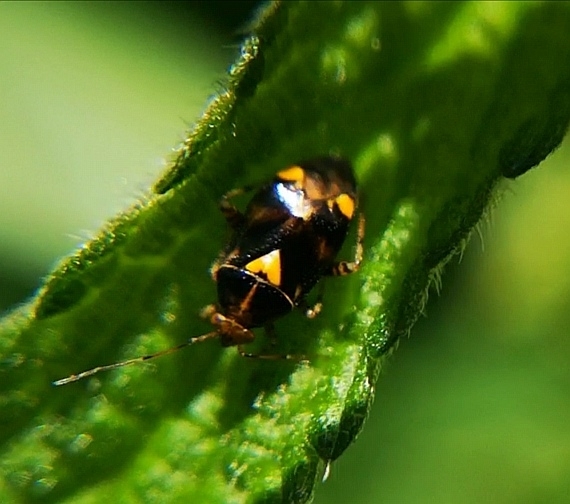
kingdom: Animalia
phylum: Arthropoda
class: Insecta
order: Hemiptera
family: Miridae
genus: Liocoris
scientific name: Liocoris tripustulatus
